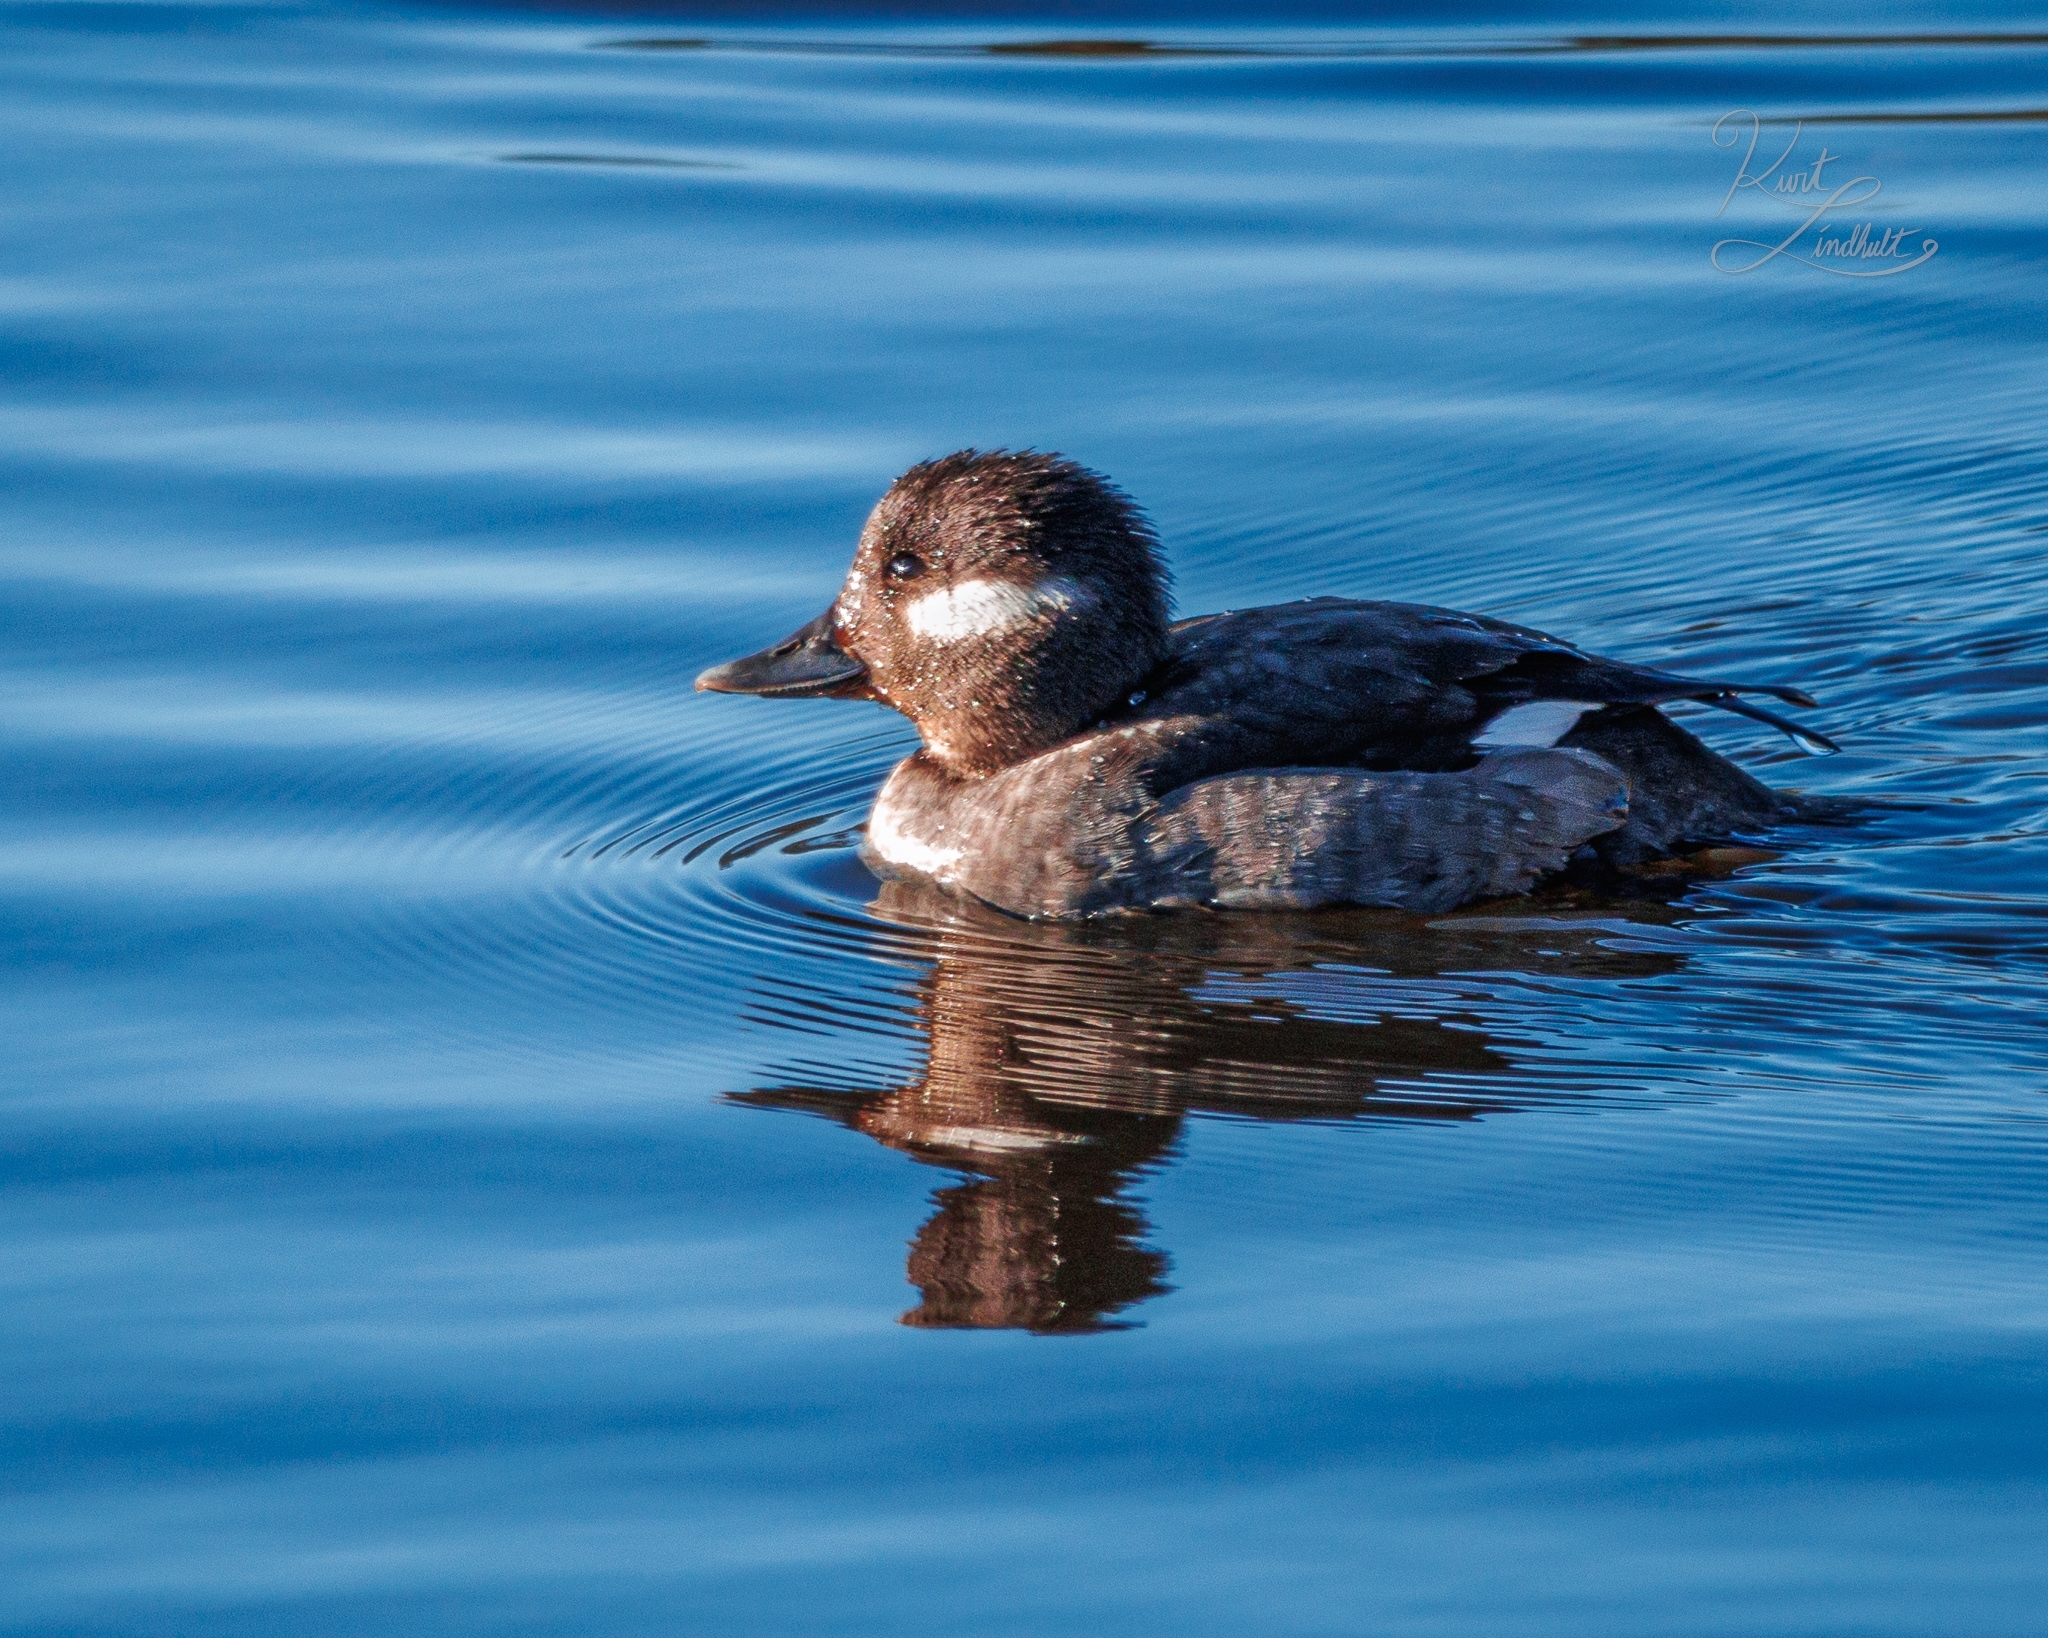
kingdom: Animalia
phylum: Chordata
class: Aves
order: Anseriformes
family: Anatidae
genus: Bucephala
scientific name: Bucephala albeola
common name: Bufflehead
